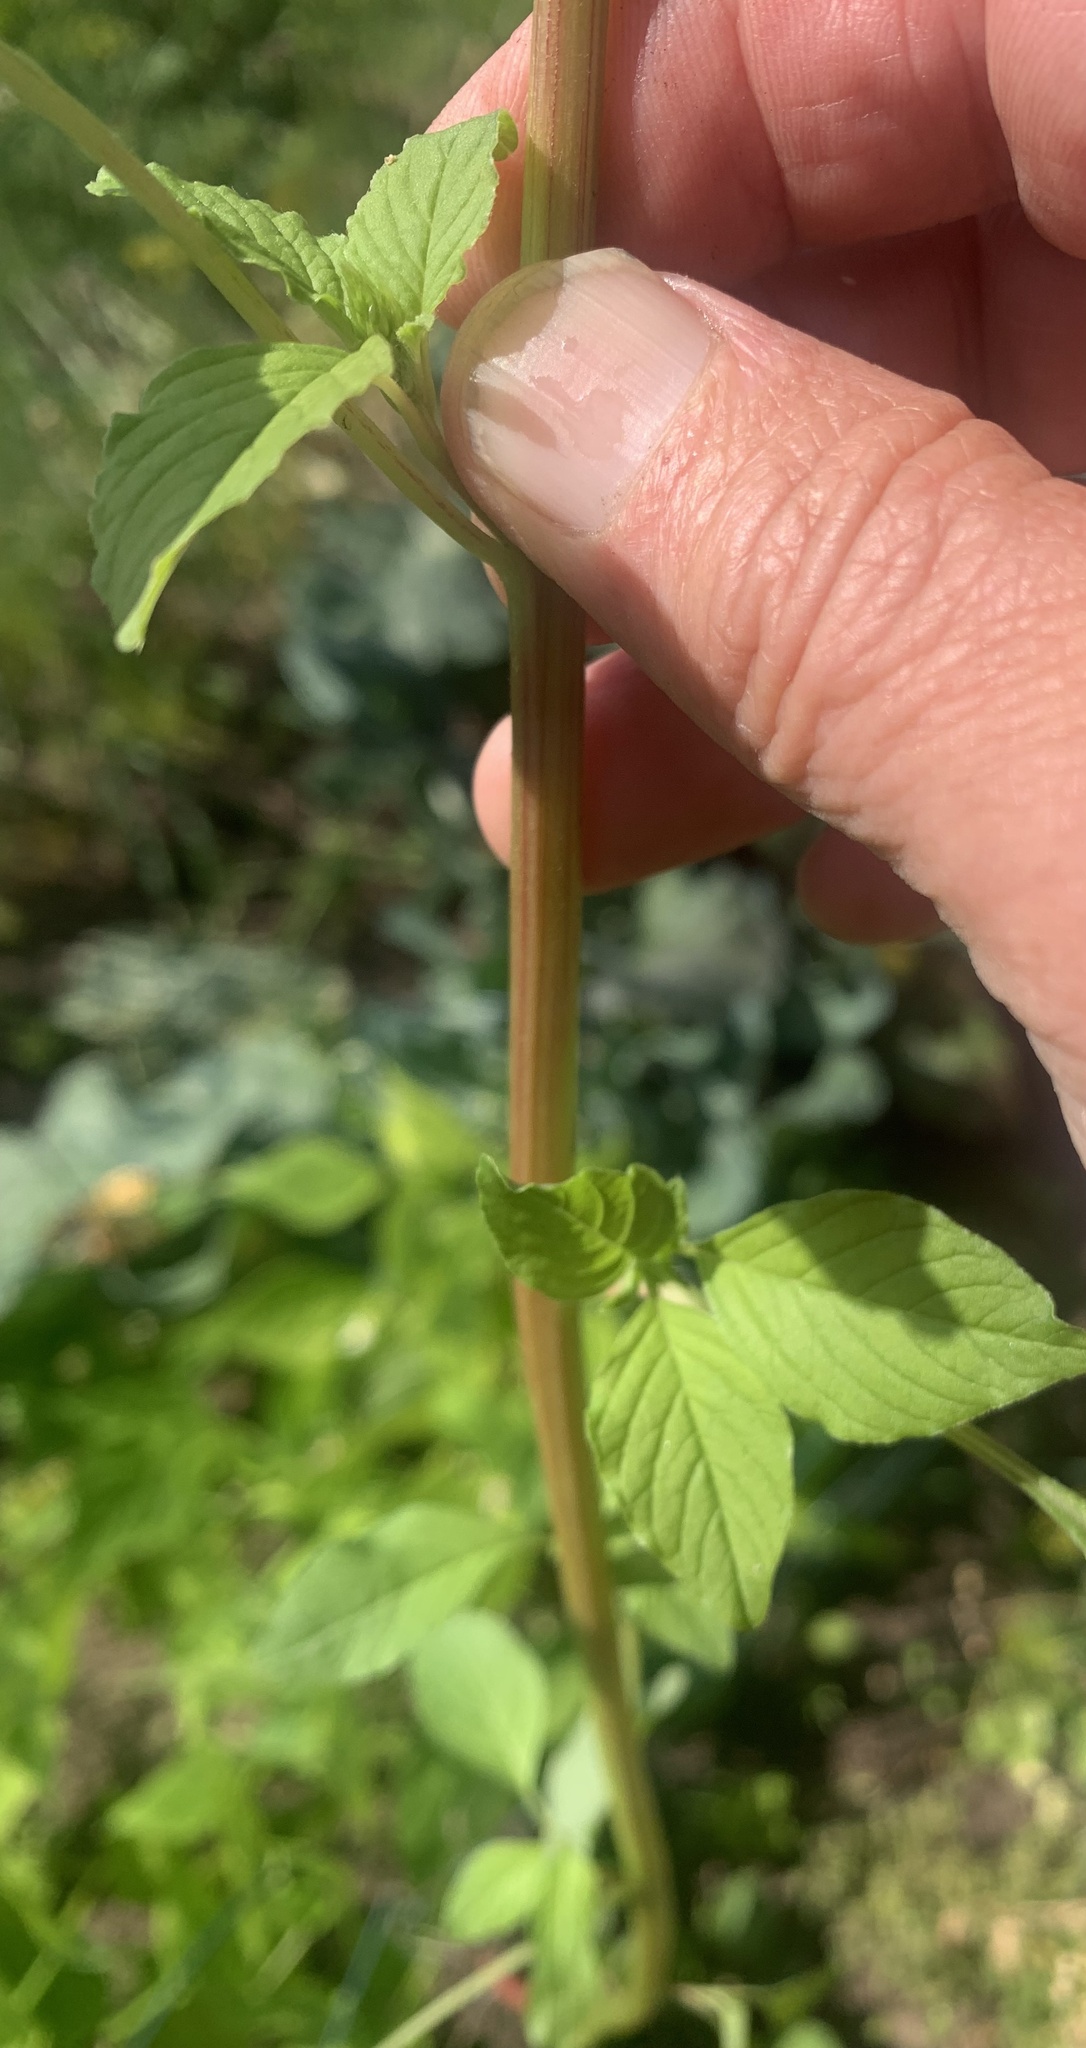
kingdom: Plantae
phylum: Tracheophyta
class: Magnoliopsida
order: Caryophyllales
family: Amaranthaceae
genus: Amaranthus
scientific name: Amaranthus retroflexus
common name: Redroot amaranth
